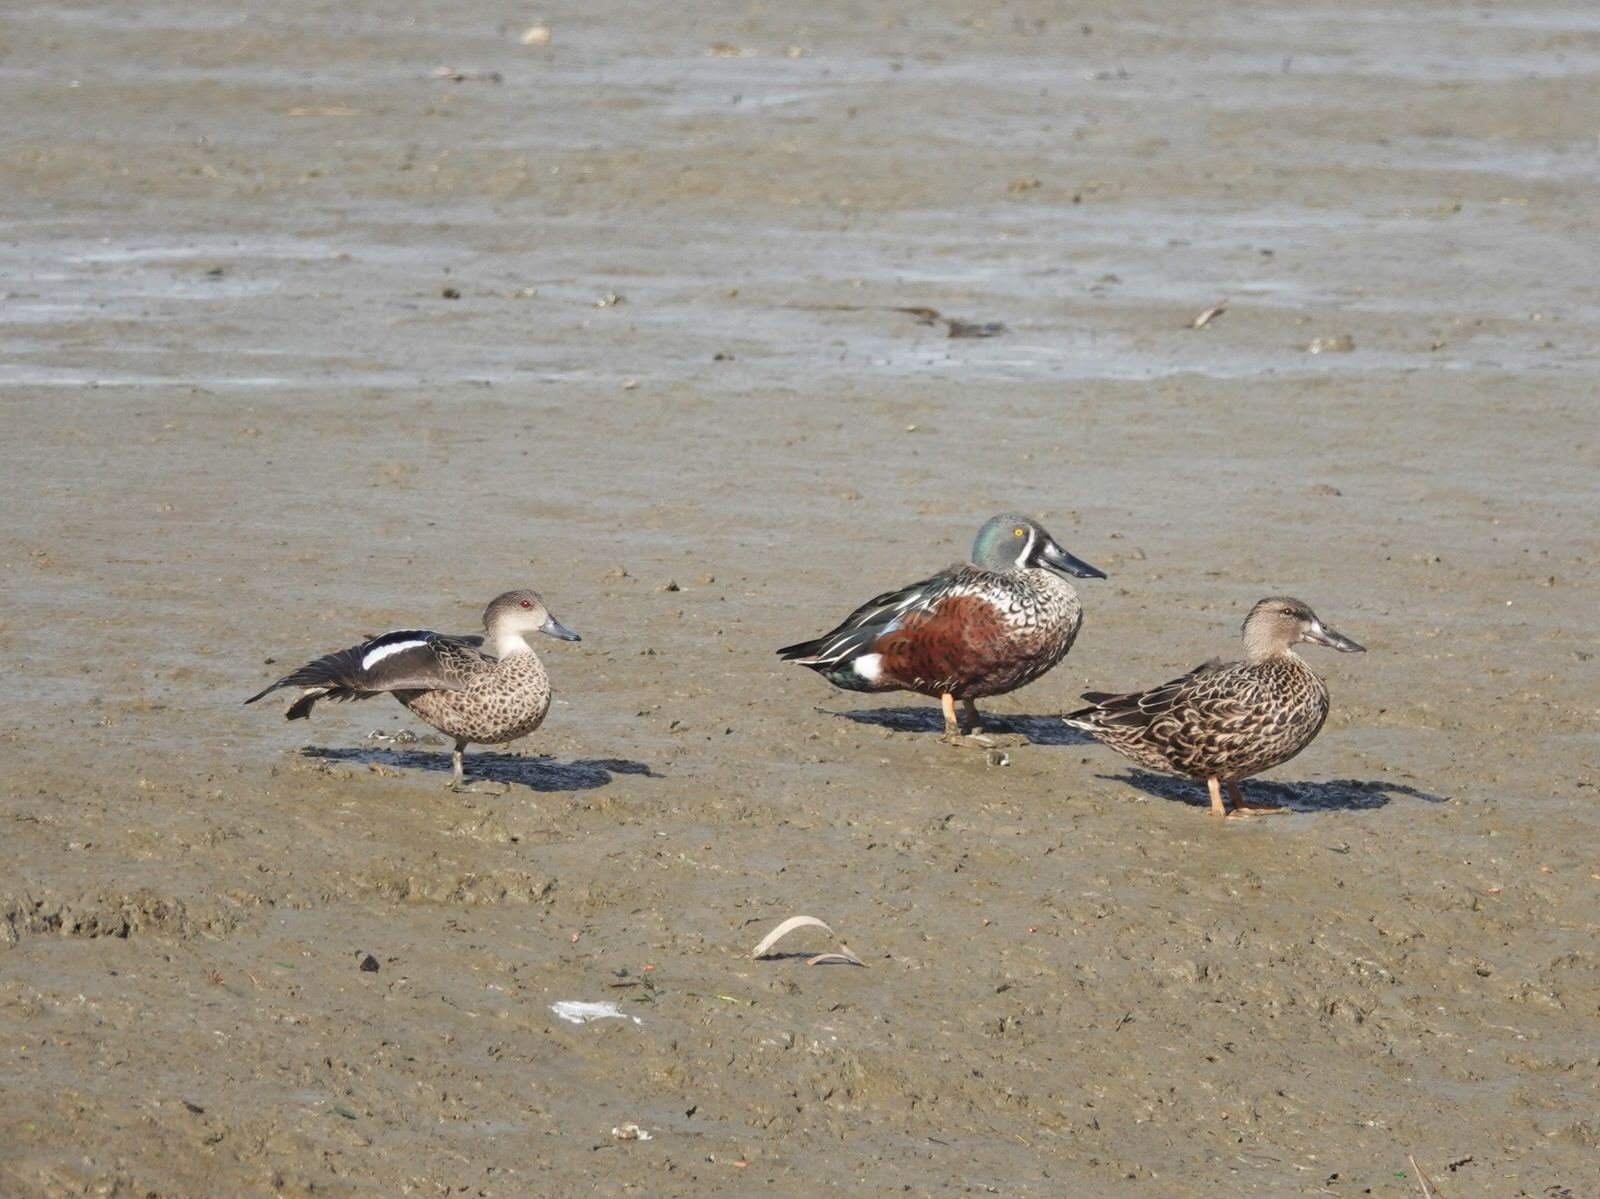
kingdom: Animalia
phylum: Chordata
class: Aves
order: Anseriformes
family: Anatidae
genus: Anas
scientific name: Anas gracilis
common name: Grey teal
